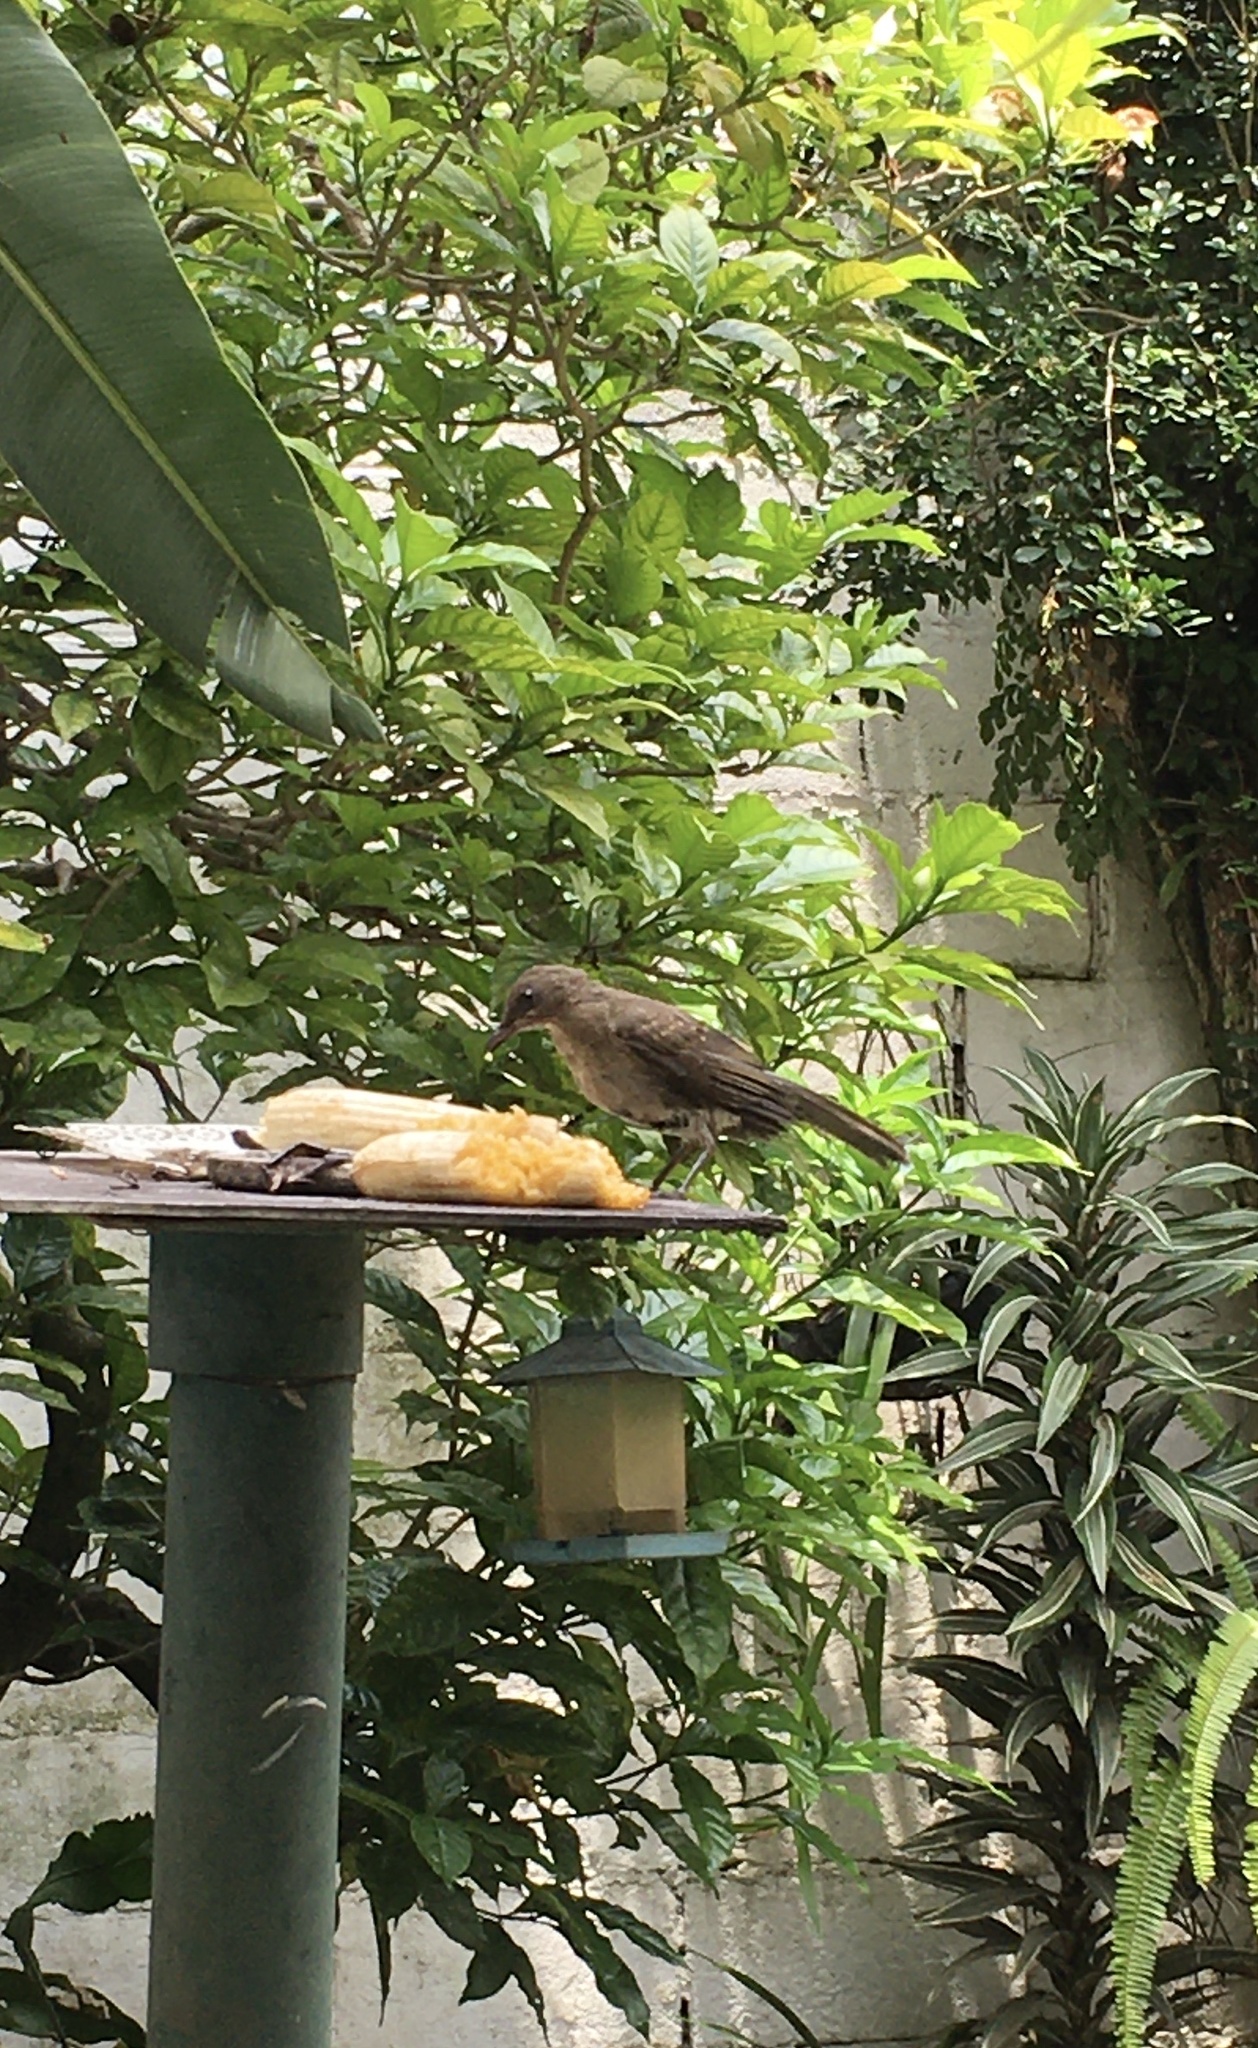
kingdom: Animalia
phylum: Chordata
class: Aves
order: Passeriformes
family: Turdidae
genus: Turdus
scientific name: Turdus ignobilis
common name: Black-billed thrush
